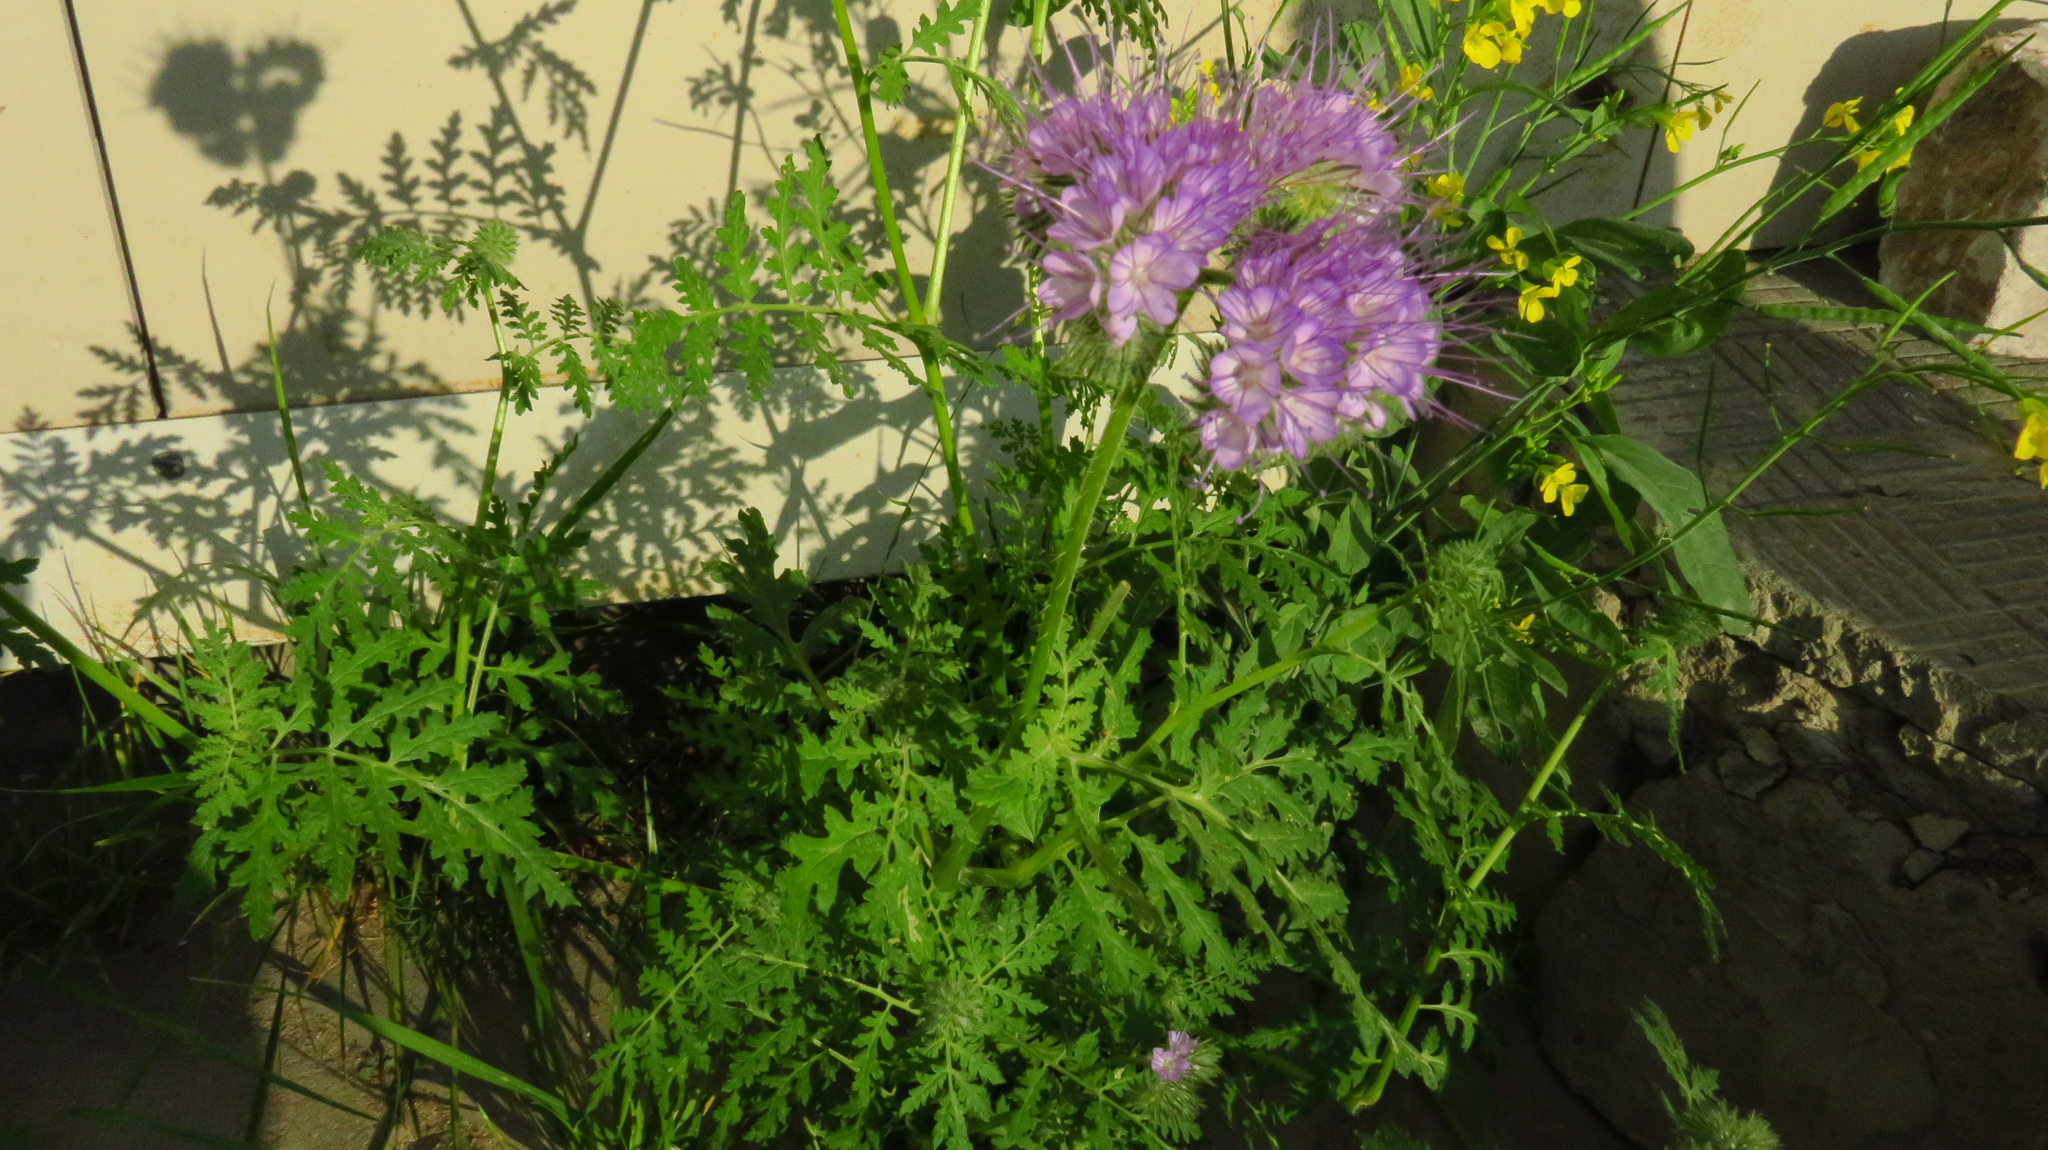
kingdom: Plantae
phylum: Tracheophyta
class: Magnoliopsida
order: Boraginales
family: Hydrophyllaceae
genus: Phacelia
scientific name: Phacelia tanacetifolia
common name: Phacelia
